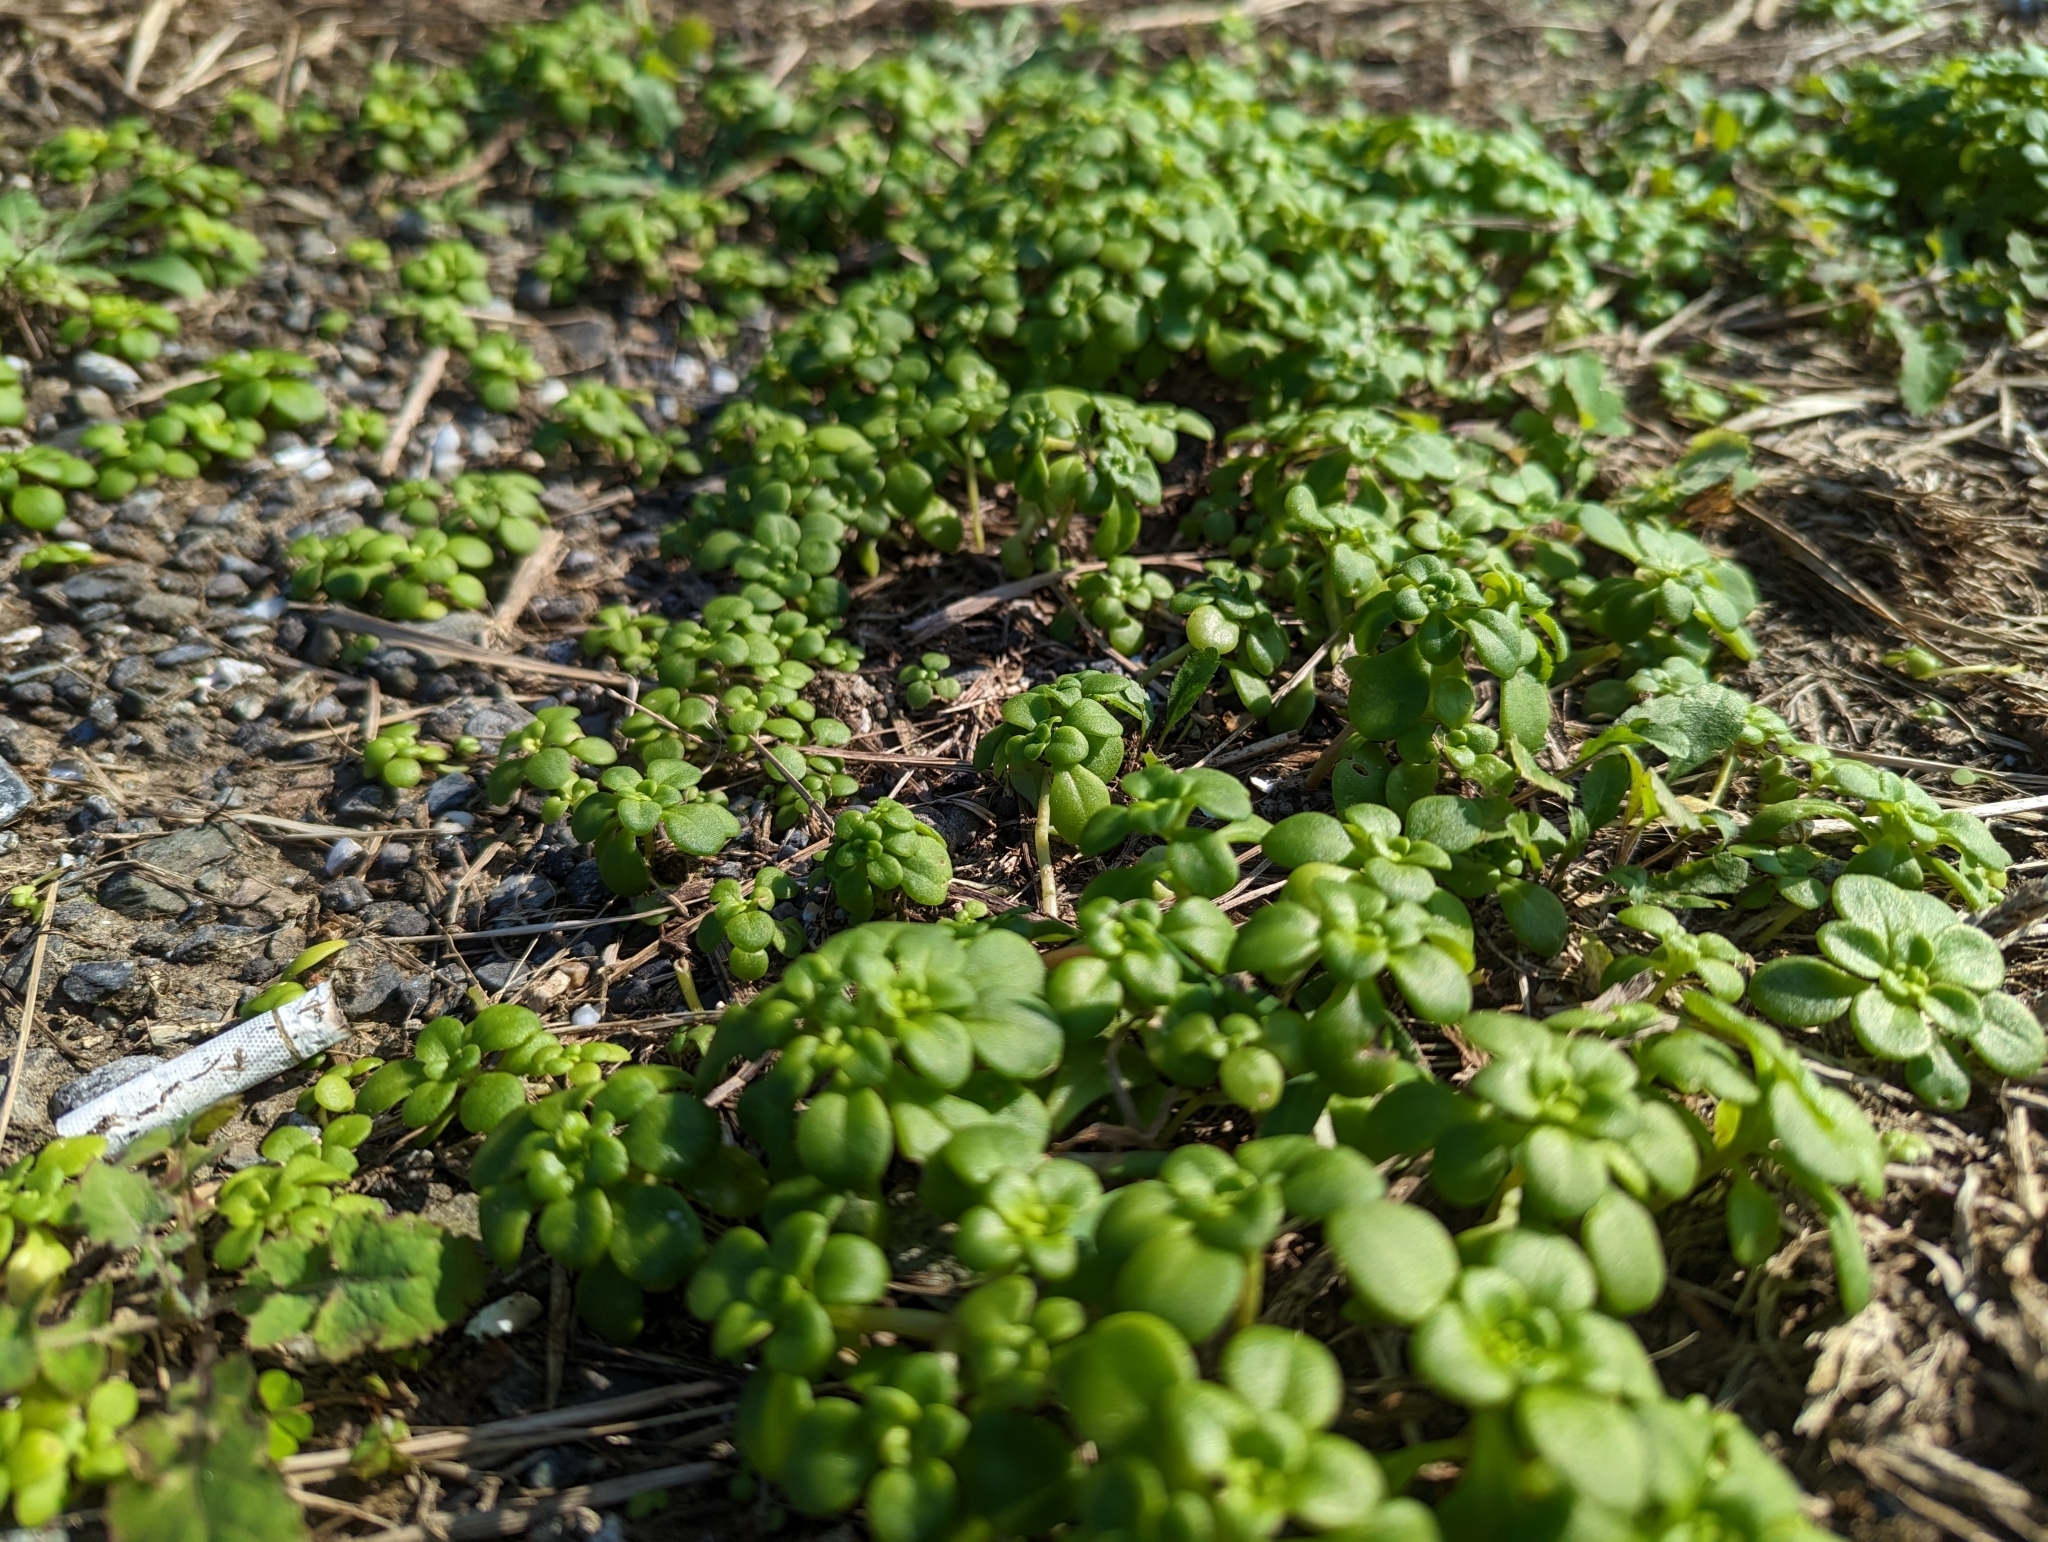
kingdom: Plantae
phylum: Tracheophyta
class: Magnoliopsida
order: Saxifragales
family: Crassulaceae
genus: Sedum
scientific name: Sedum formosanum
